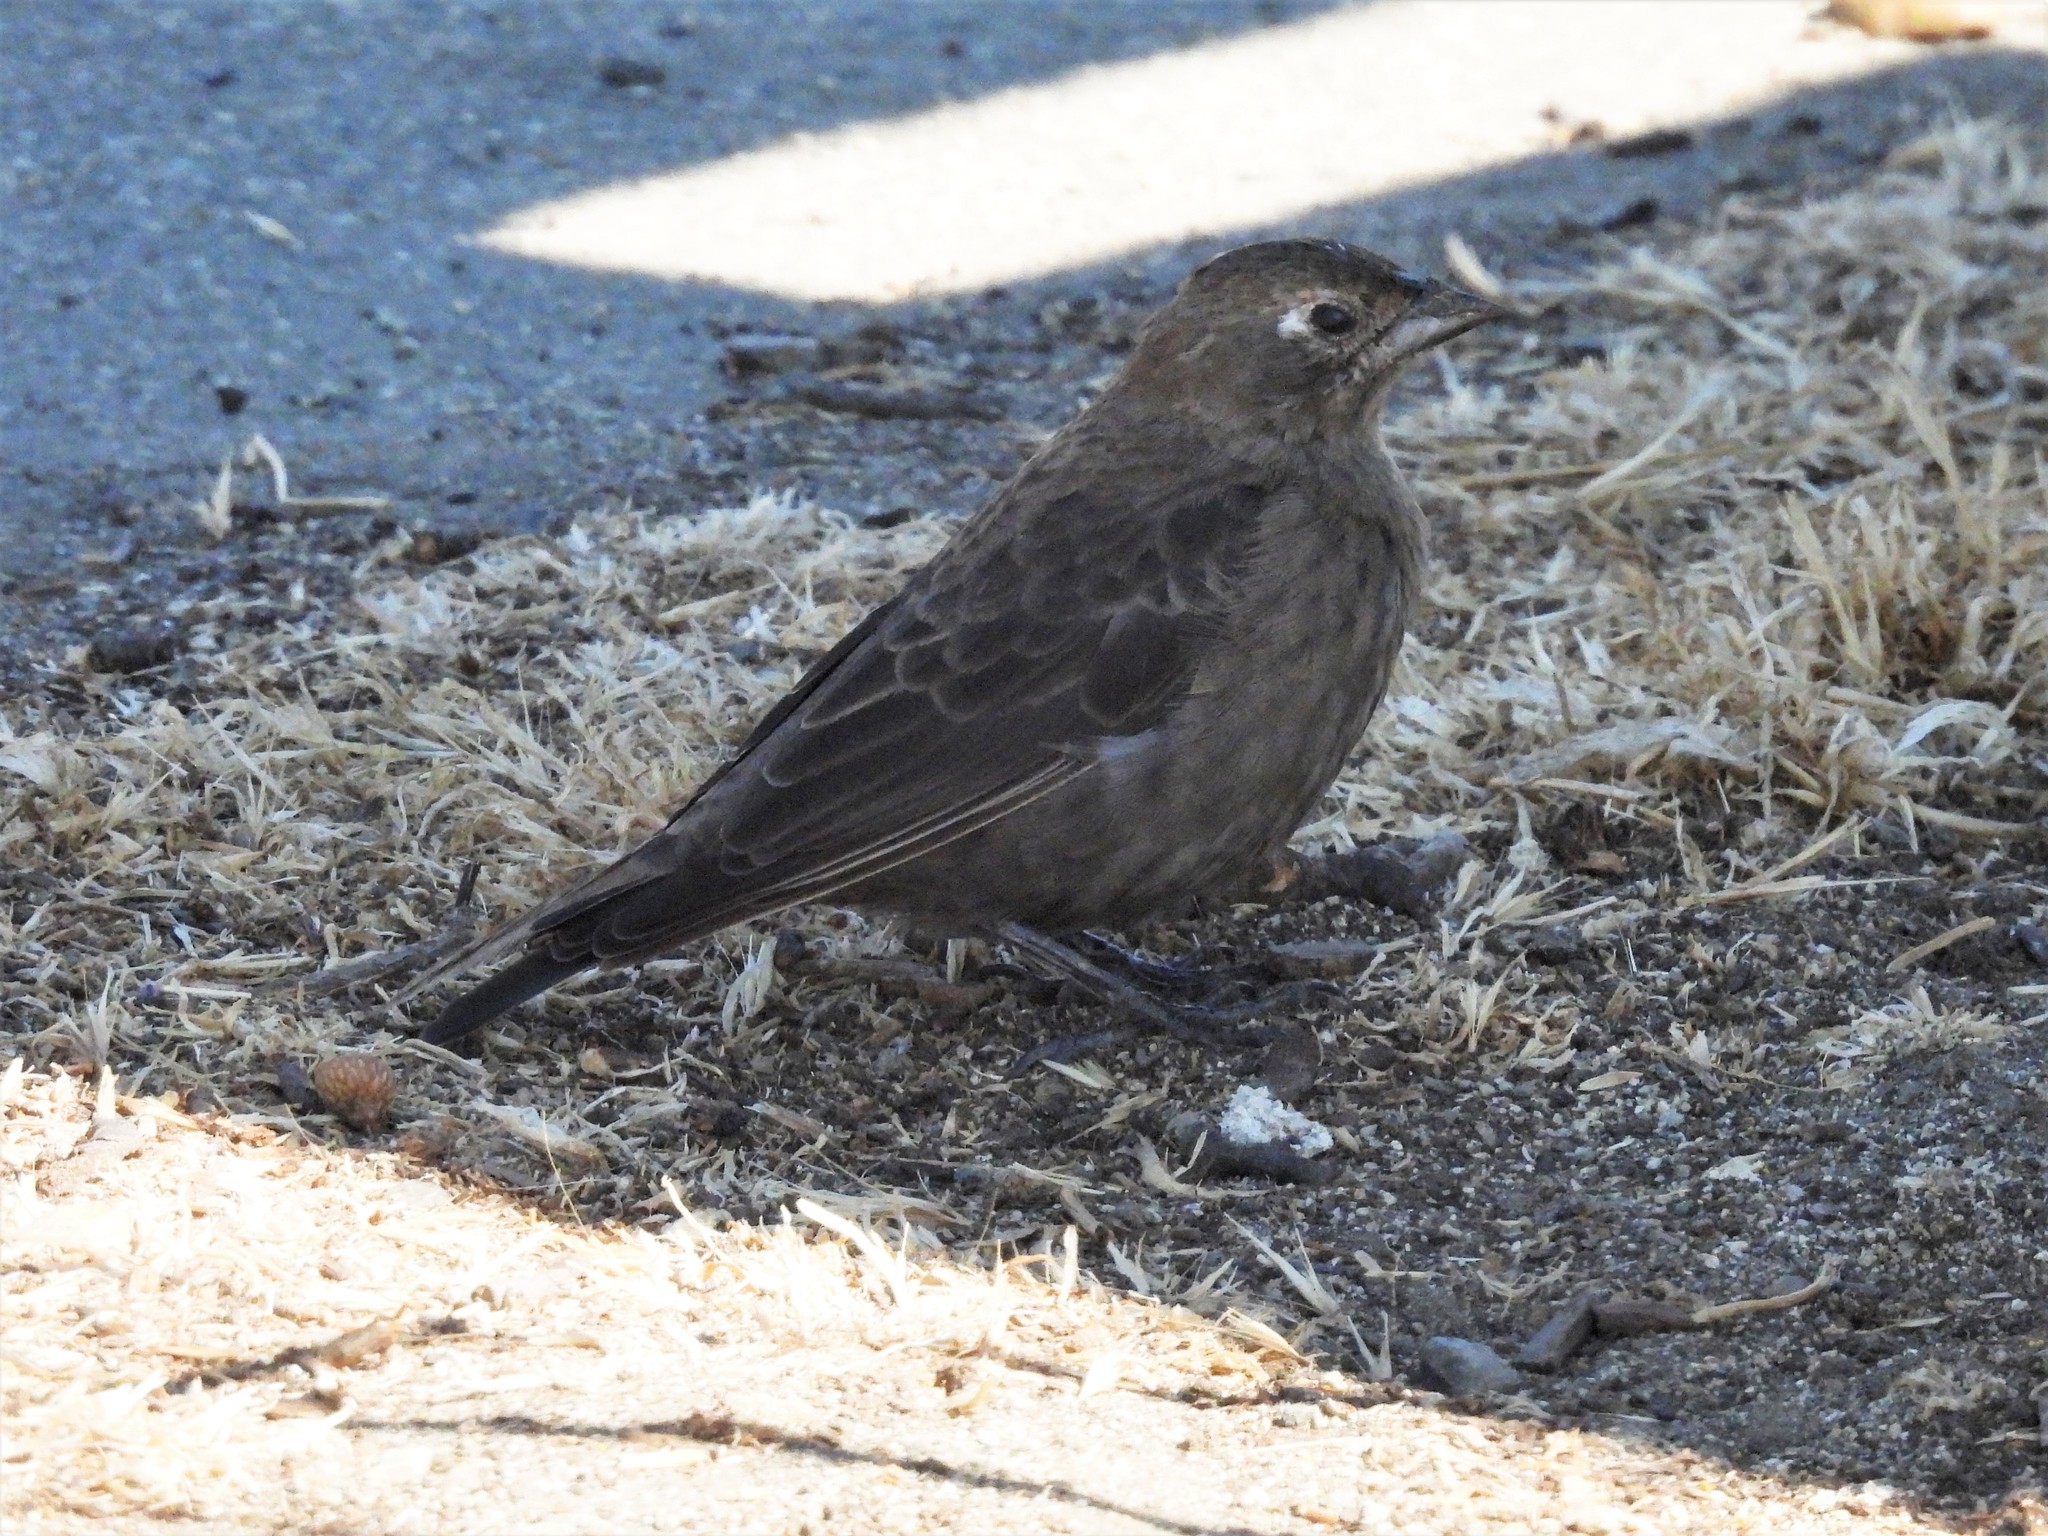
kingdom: Animalia
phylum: Chordata
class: Aves
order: Passeriformes
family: Icteridae
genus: Molothrus
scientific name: Molothrus ater
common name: Brown-headed cowbird
